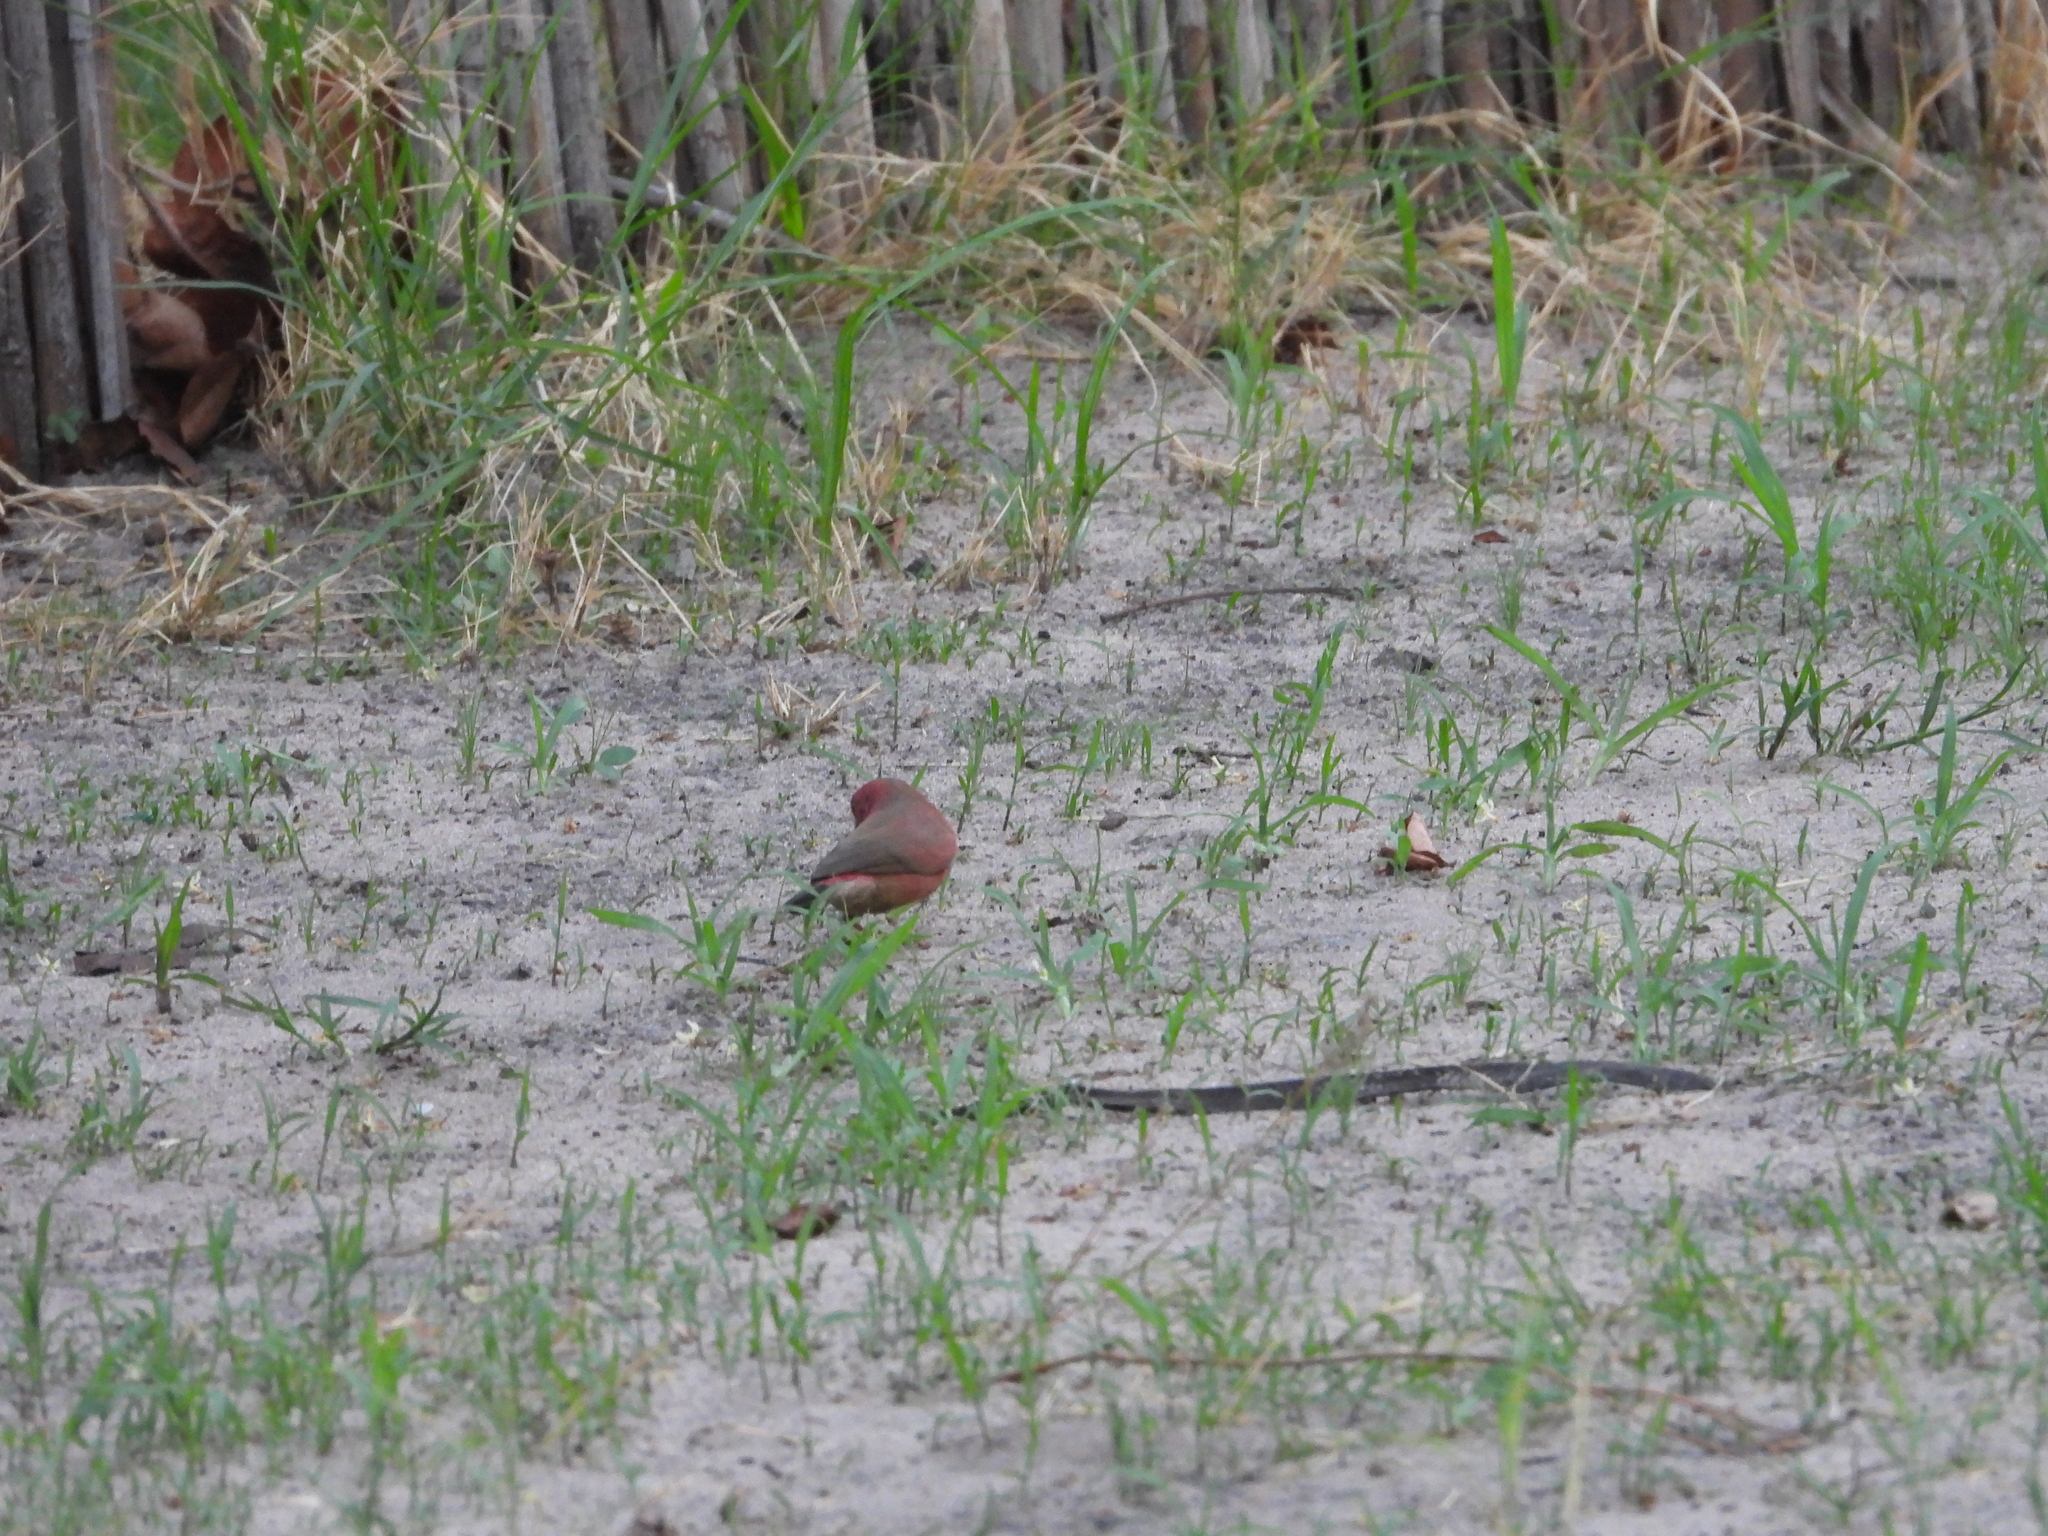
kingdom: Animalia
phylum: Chordata
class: Aves
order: Passeriformes
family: Estrildidae
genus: Lagonosticta
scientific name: Lagonosticta senegala
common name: Red-billed firefinch
